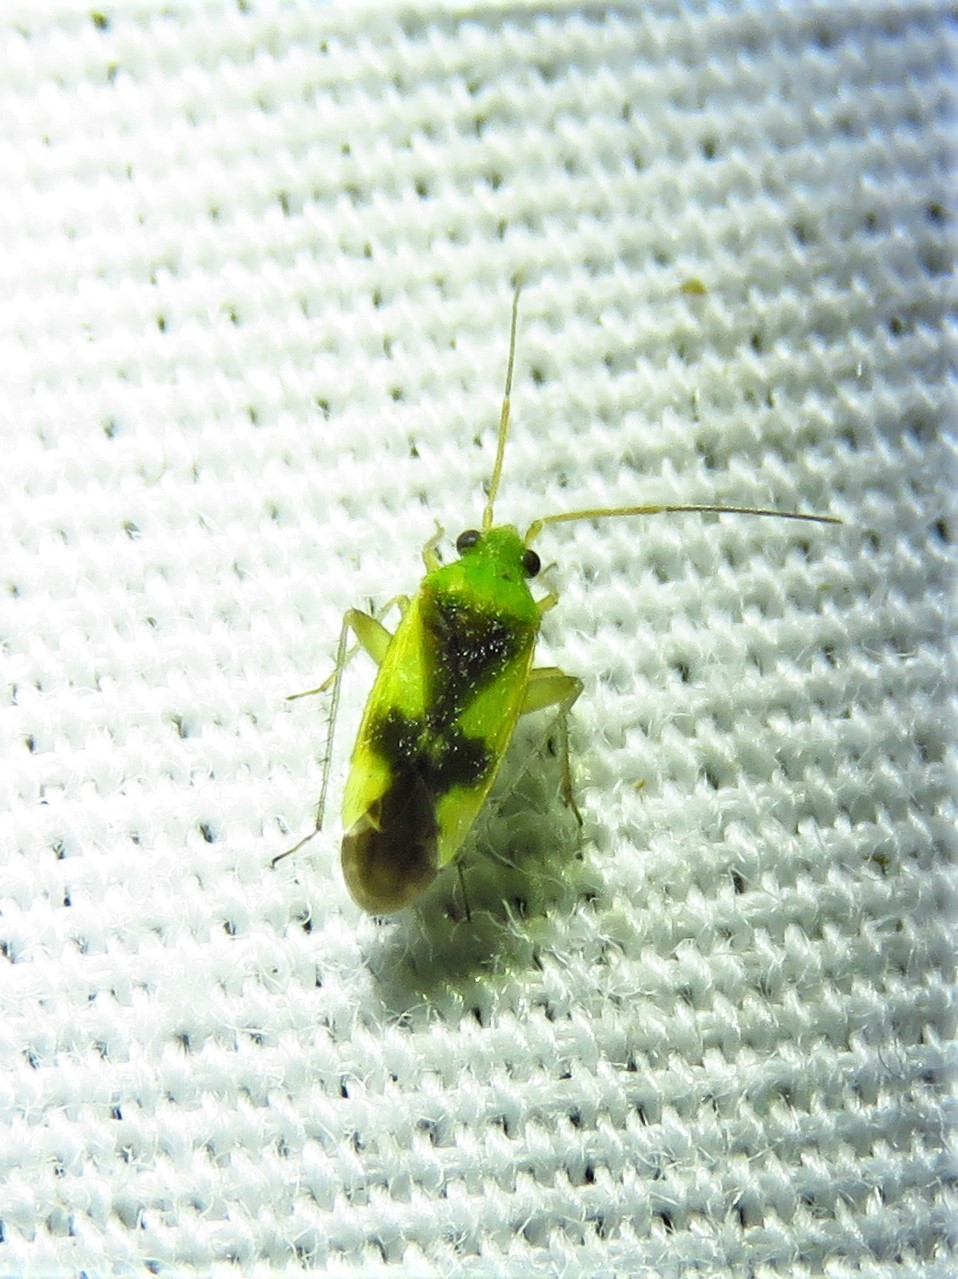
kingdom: Animalia
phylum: Arthropoda
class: Insecta
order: Hemiptera
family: Miridae
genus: Reuteroscopus
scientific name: Reuteroscopus ornatus
